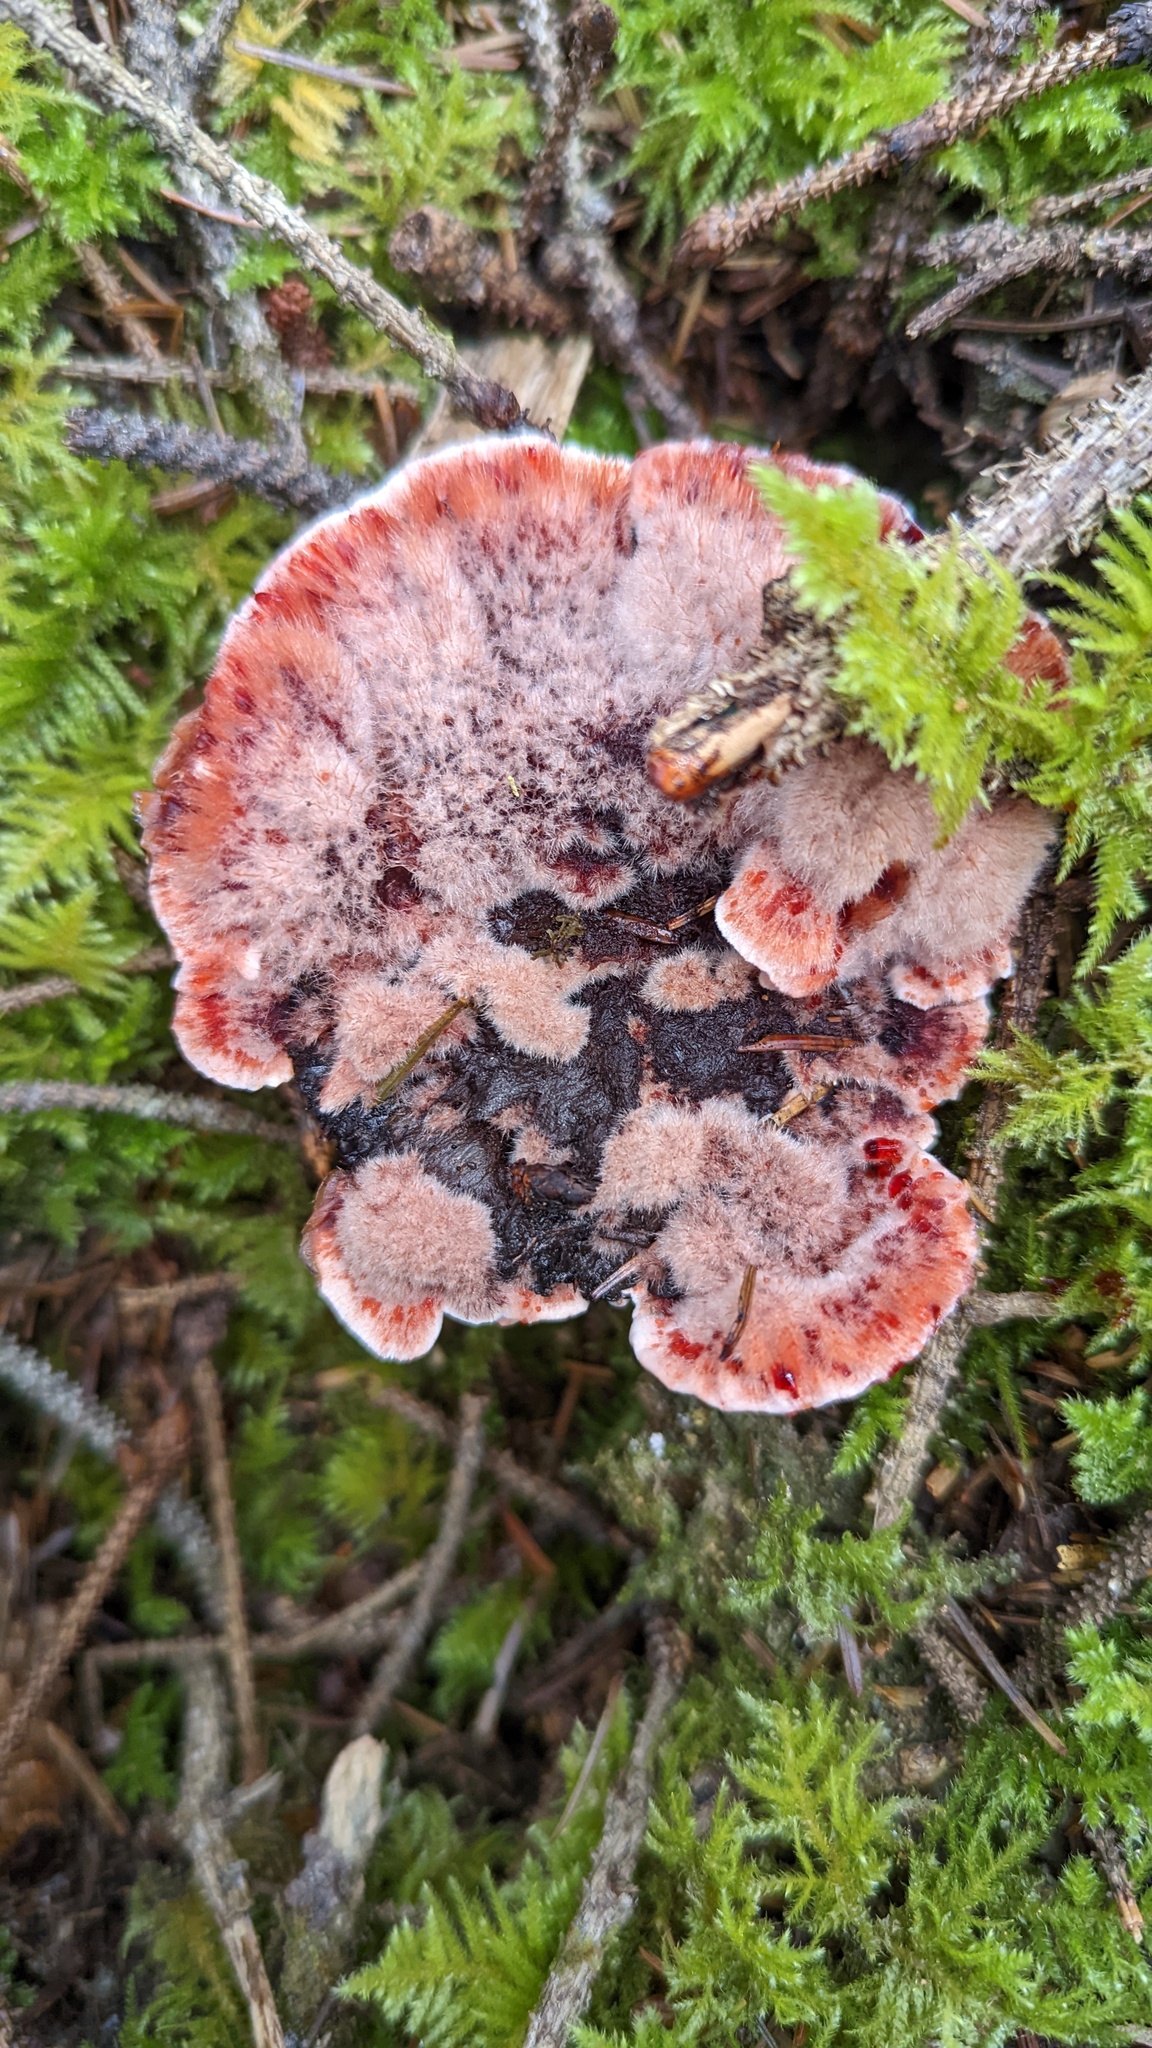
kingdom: Fungi
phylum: Basidiomycota
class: Agaricomycetes
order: Thelephorales
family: Bankeraceae
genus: Hydnellum
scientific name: Hydnellum peckii
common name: Devil's tooth
